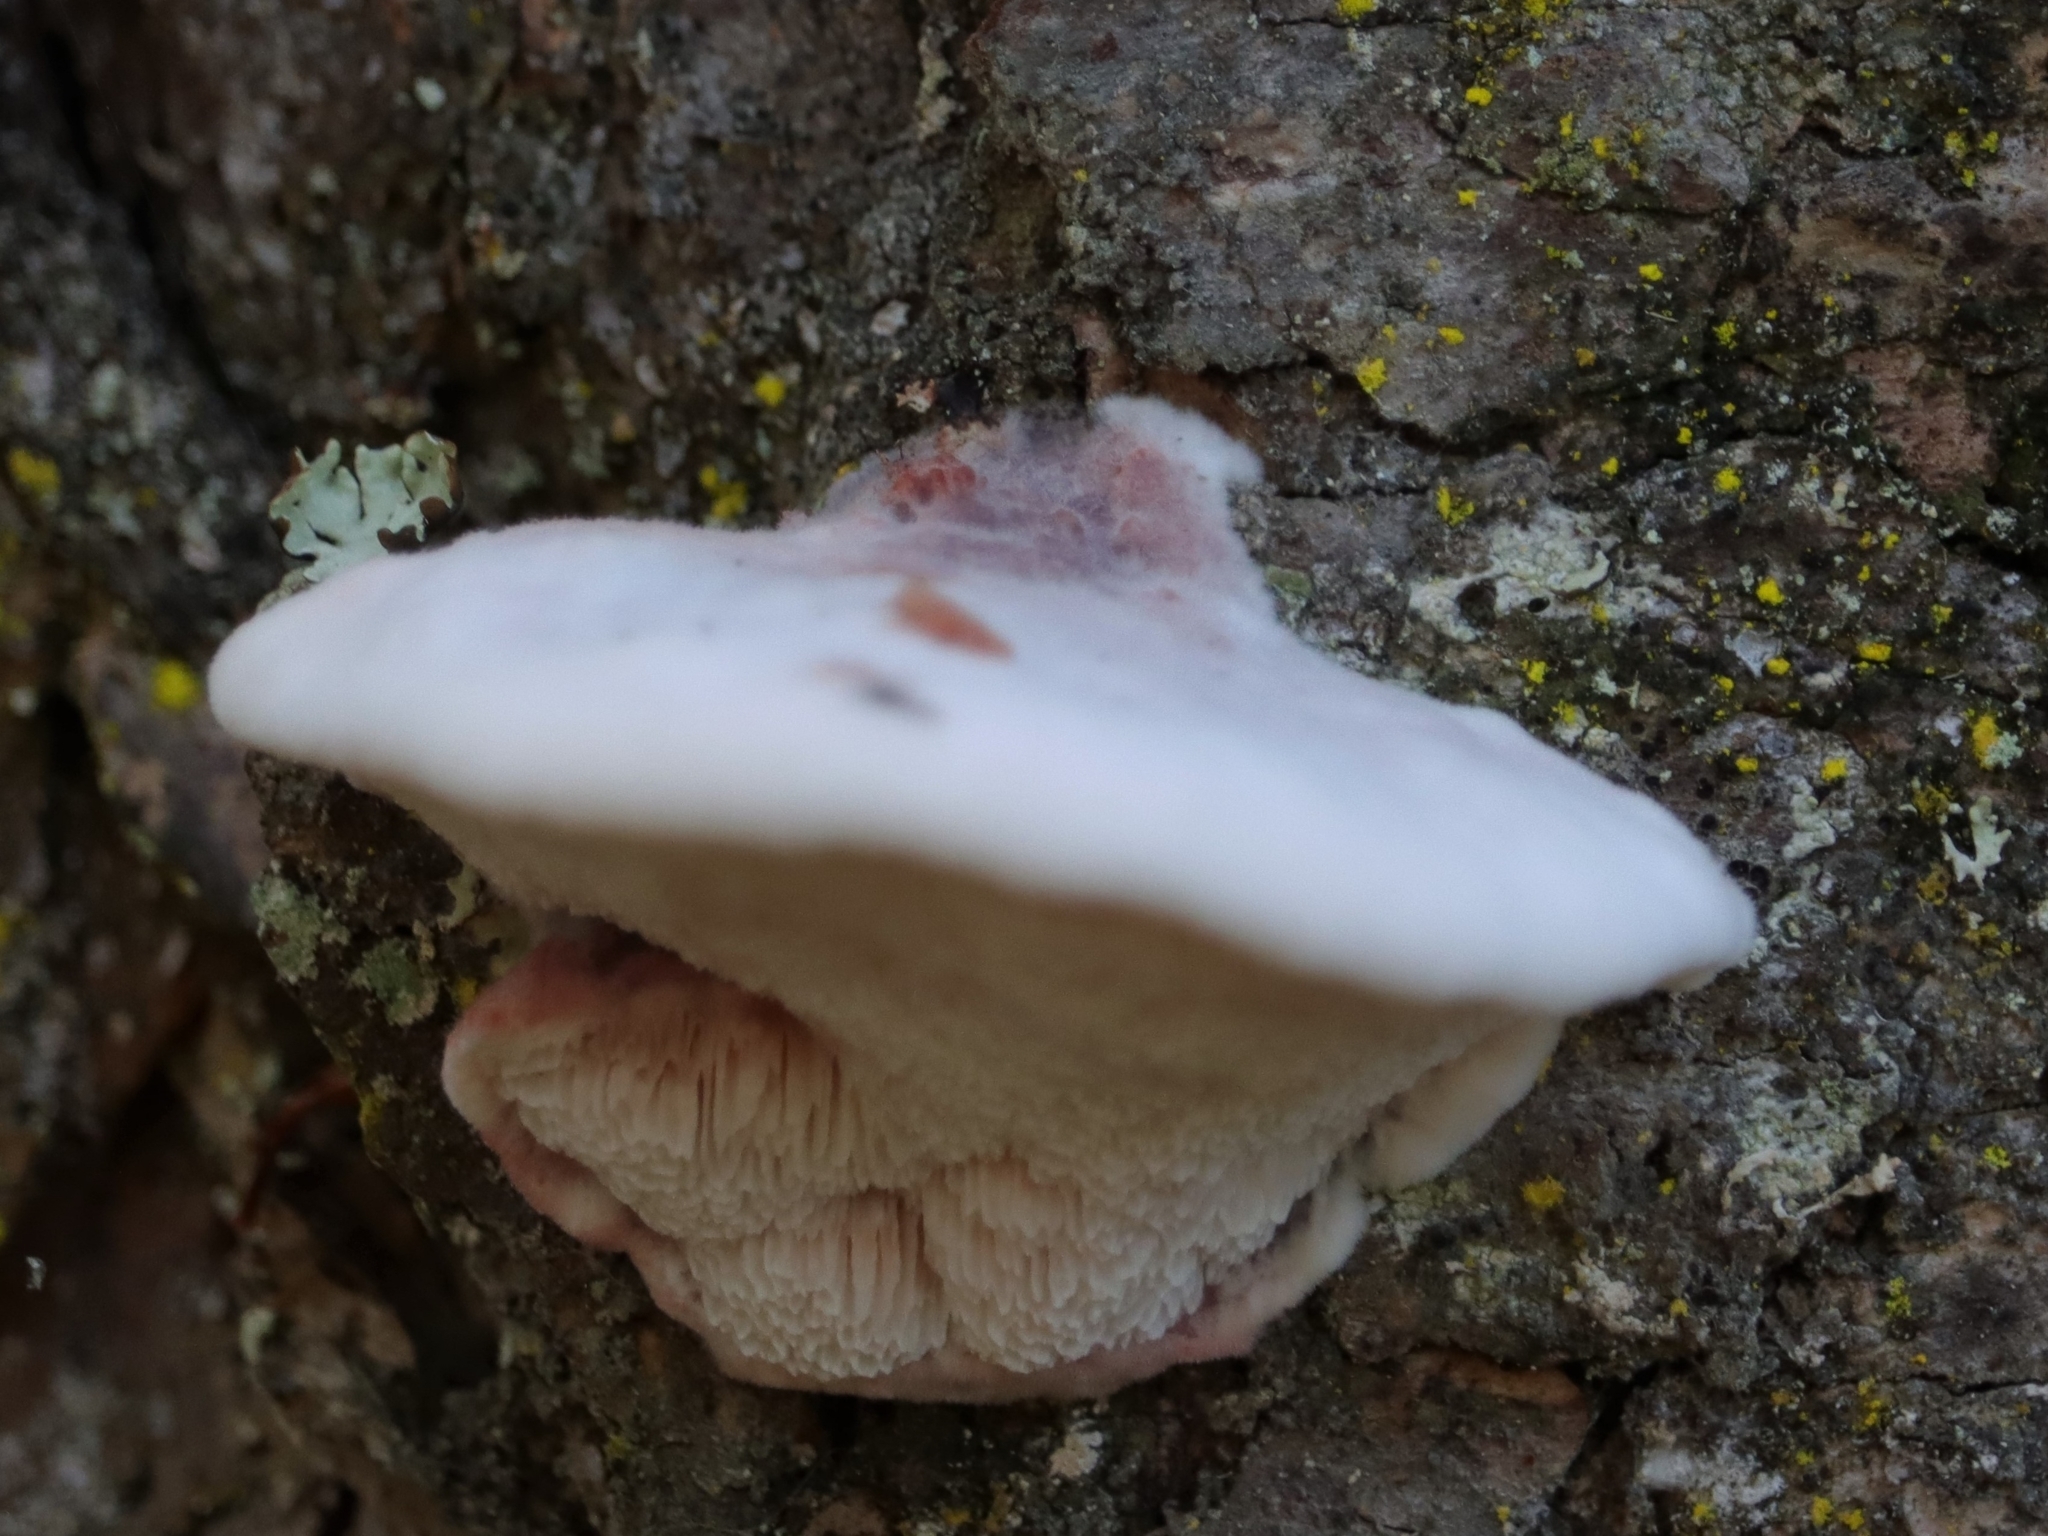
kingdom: Fungi
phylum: Basidiomycota
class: Agaricomycetes
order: Polyporales
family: Irpicaceae
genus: Leptoporus
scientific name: Leptoporus mollis
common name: Soft bracket
